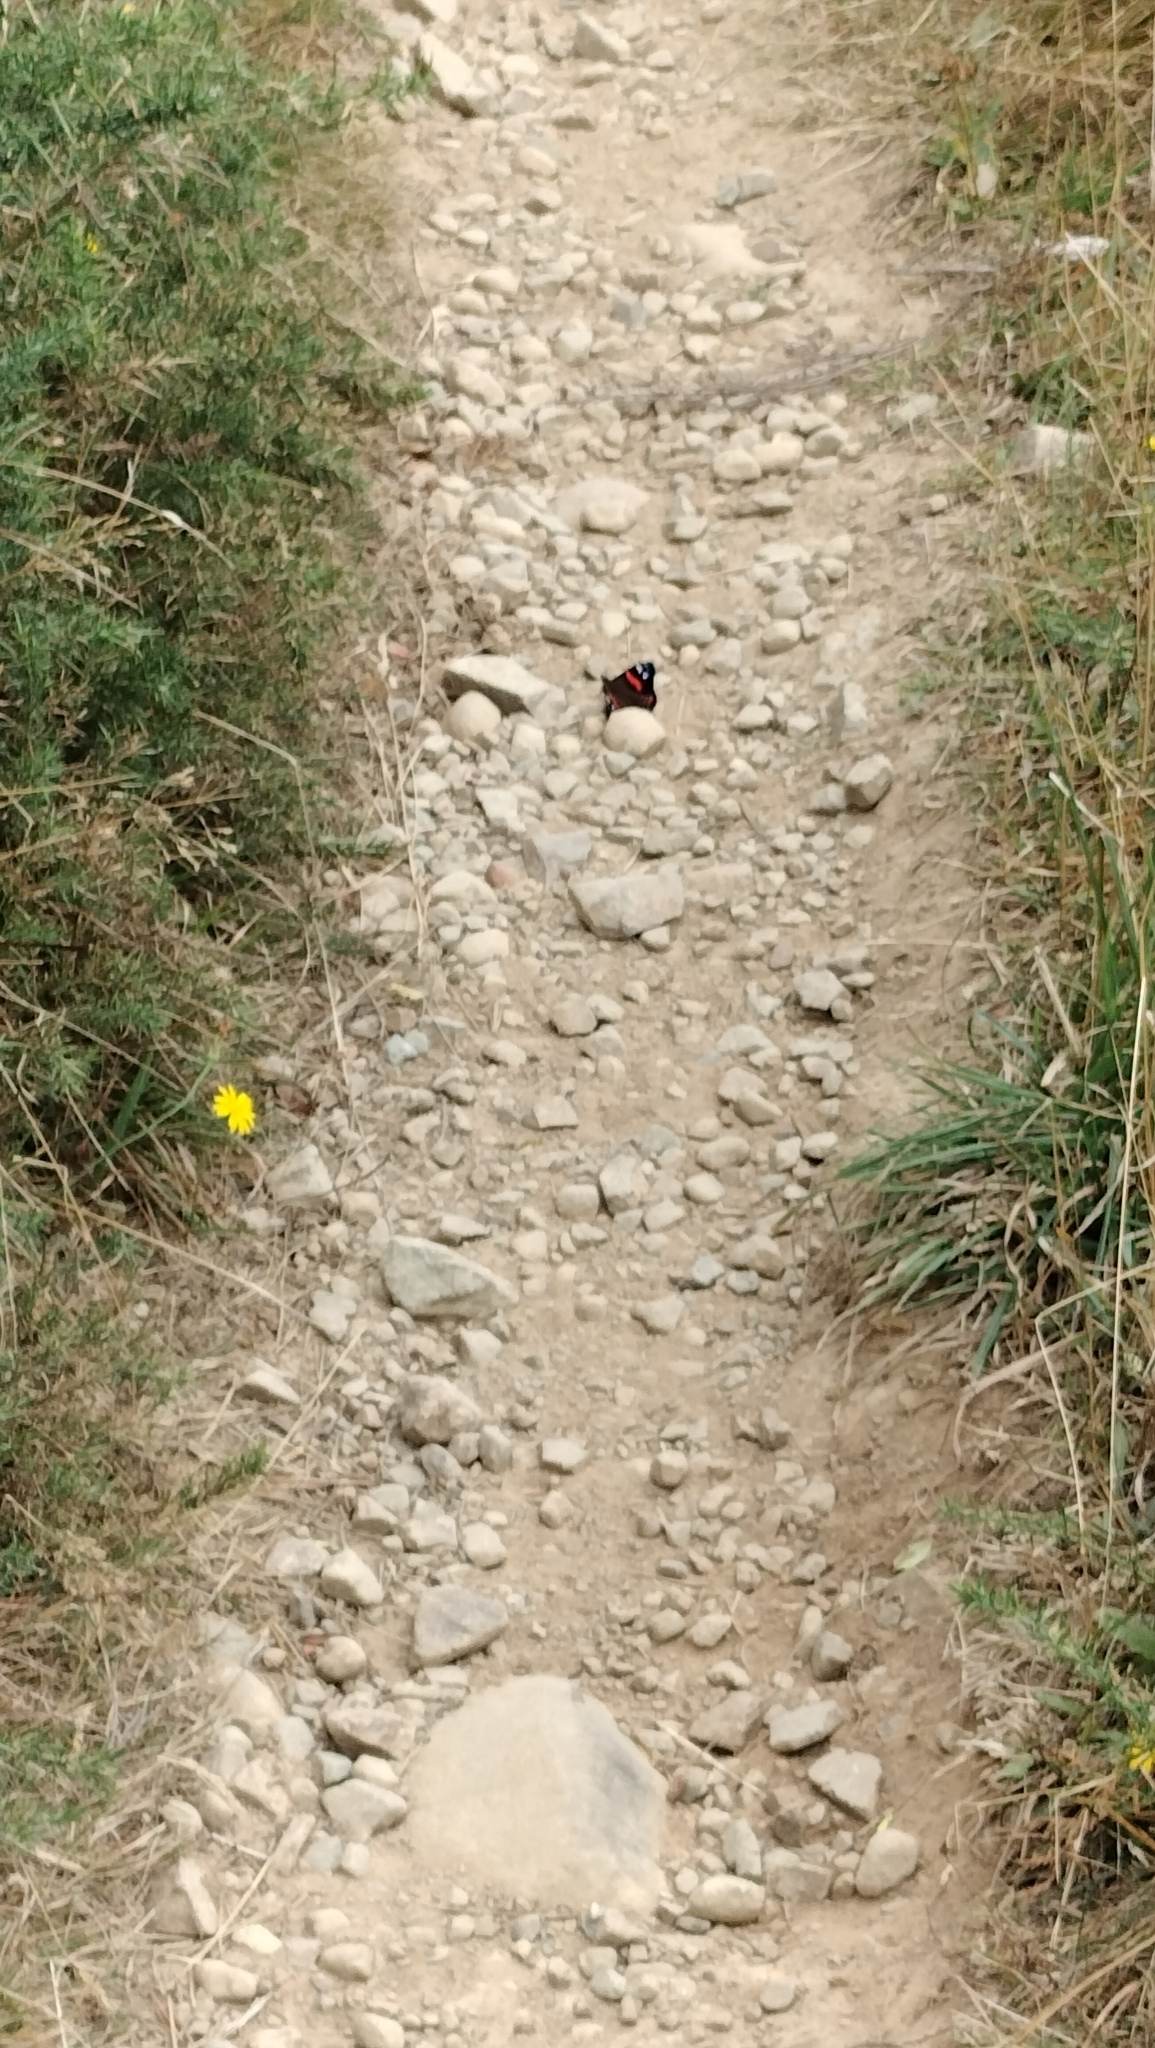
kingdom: Animalia
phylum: Arthropoda
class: Insecta
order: Lepidoptera
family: Nymphalidae
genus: Vanessa
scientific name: Vanessa gonerilla
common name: New zealand red admiral
